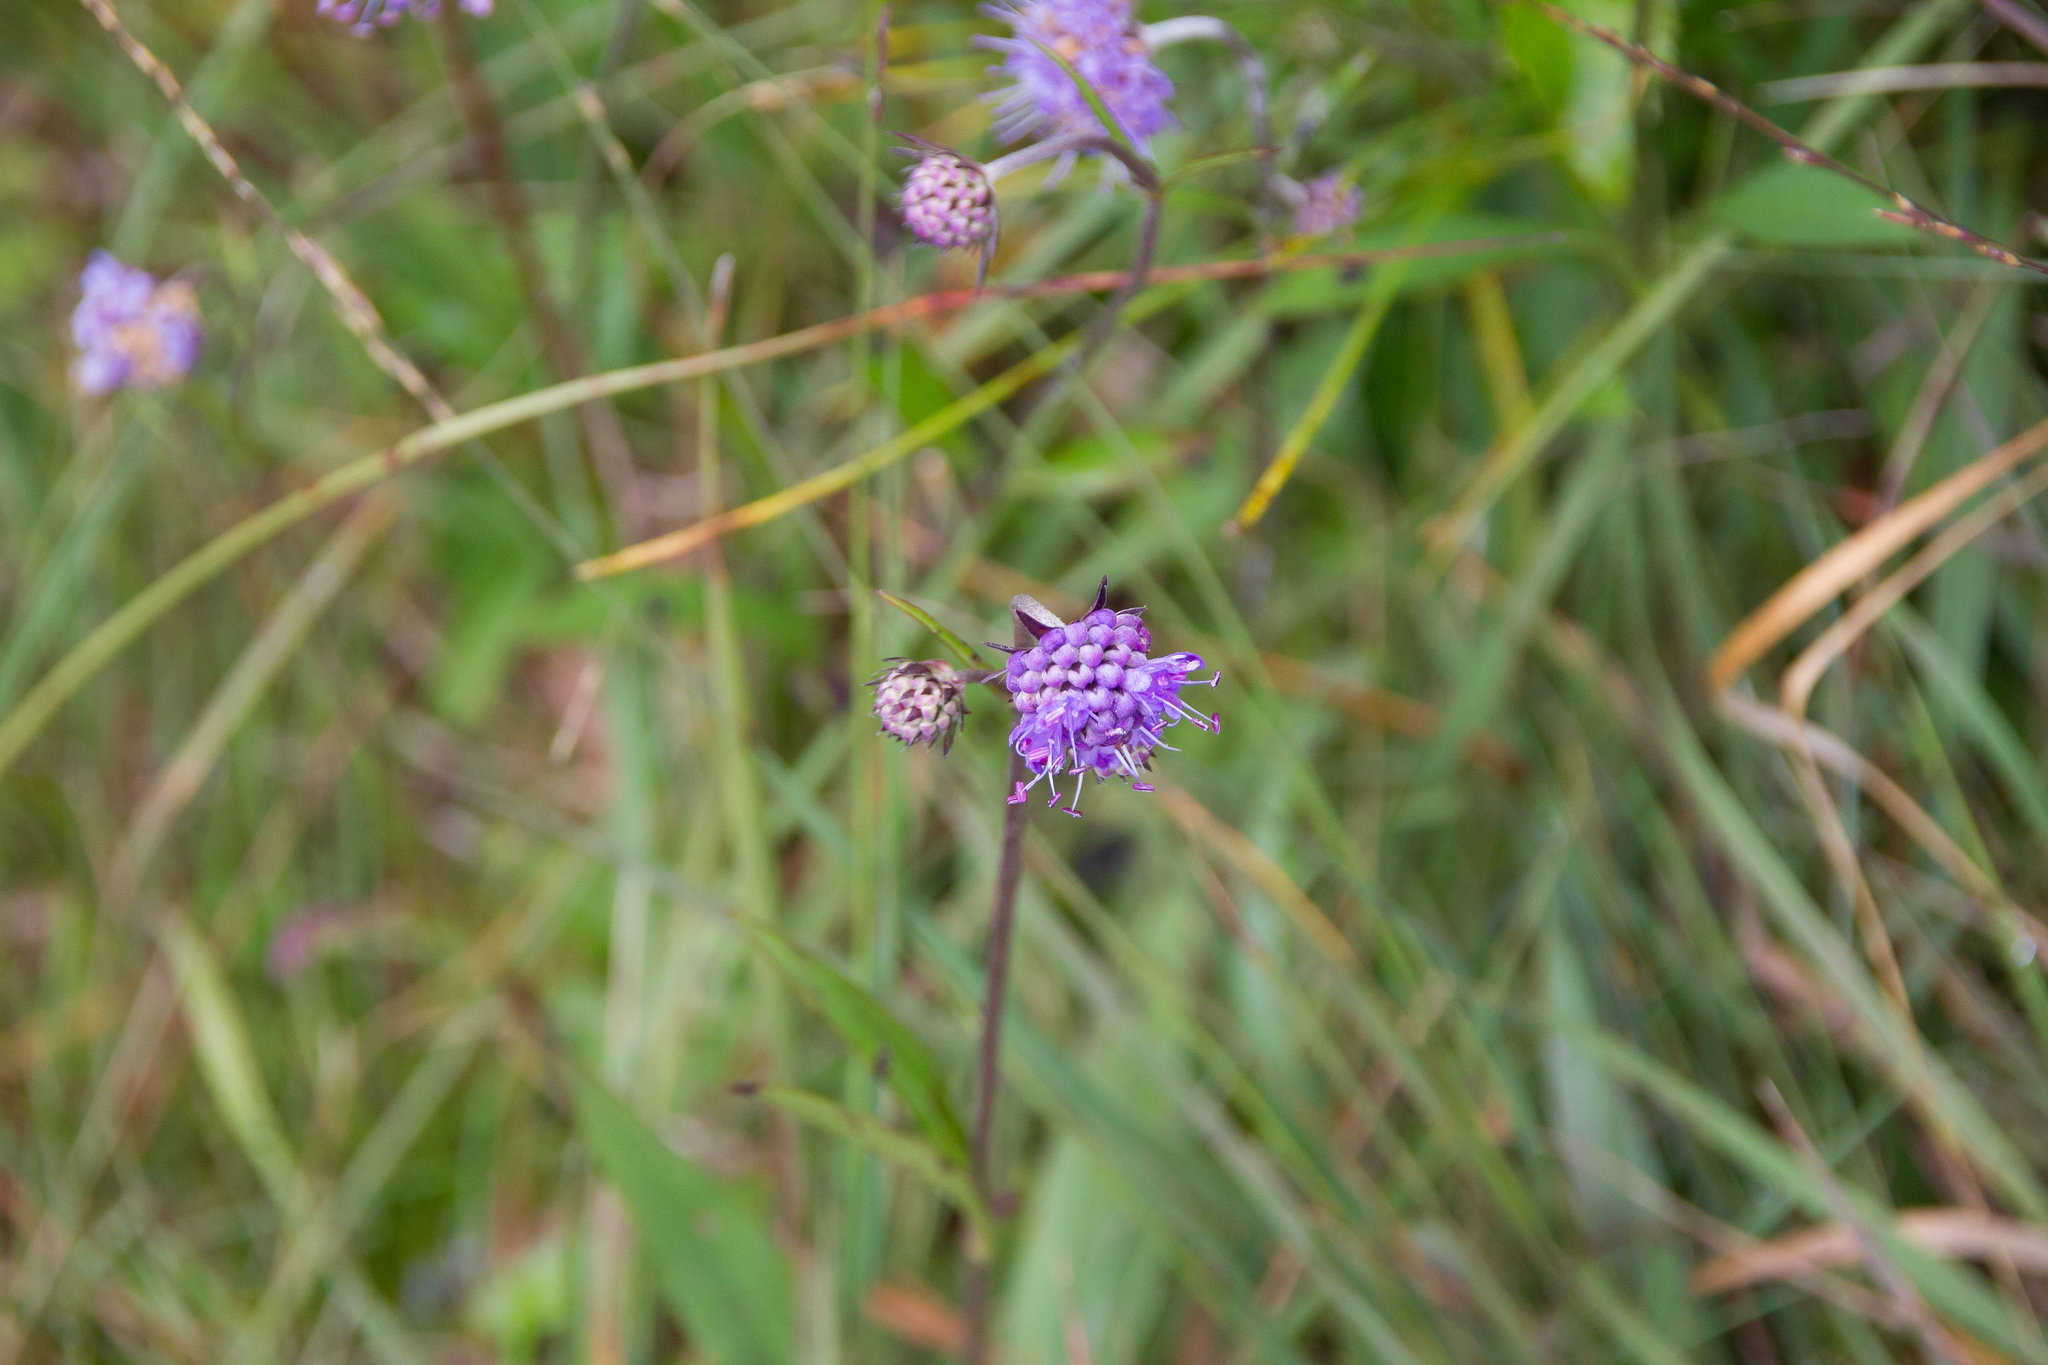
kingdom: Plantae
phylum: Tracheophyta
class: Magnoliopsida
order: Dipsacales
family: Caprifoliaceae
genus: Succisa
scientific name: Succisa pratensis
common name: Devil's-bit
